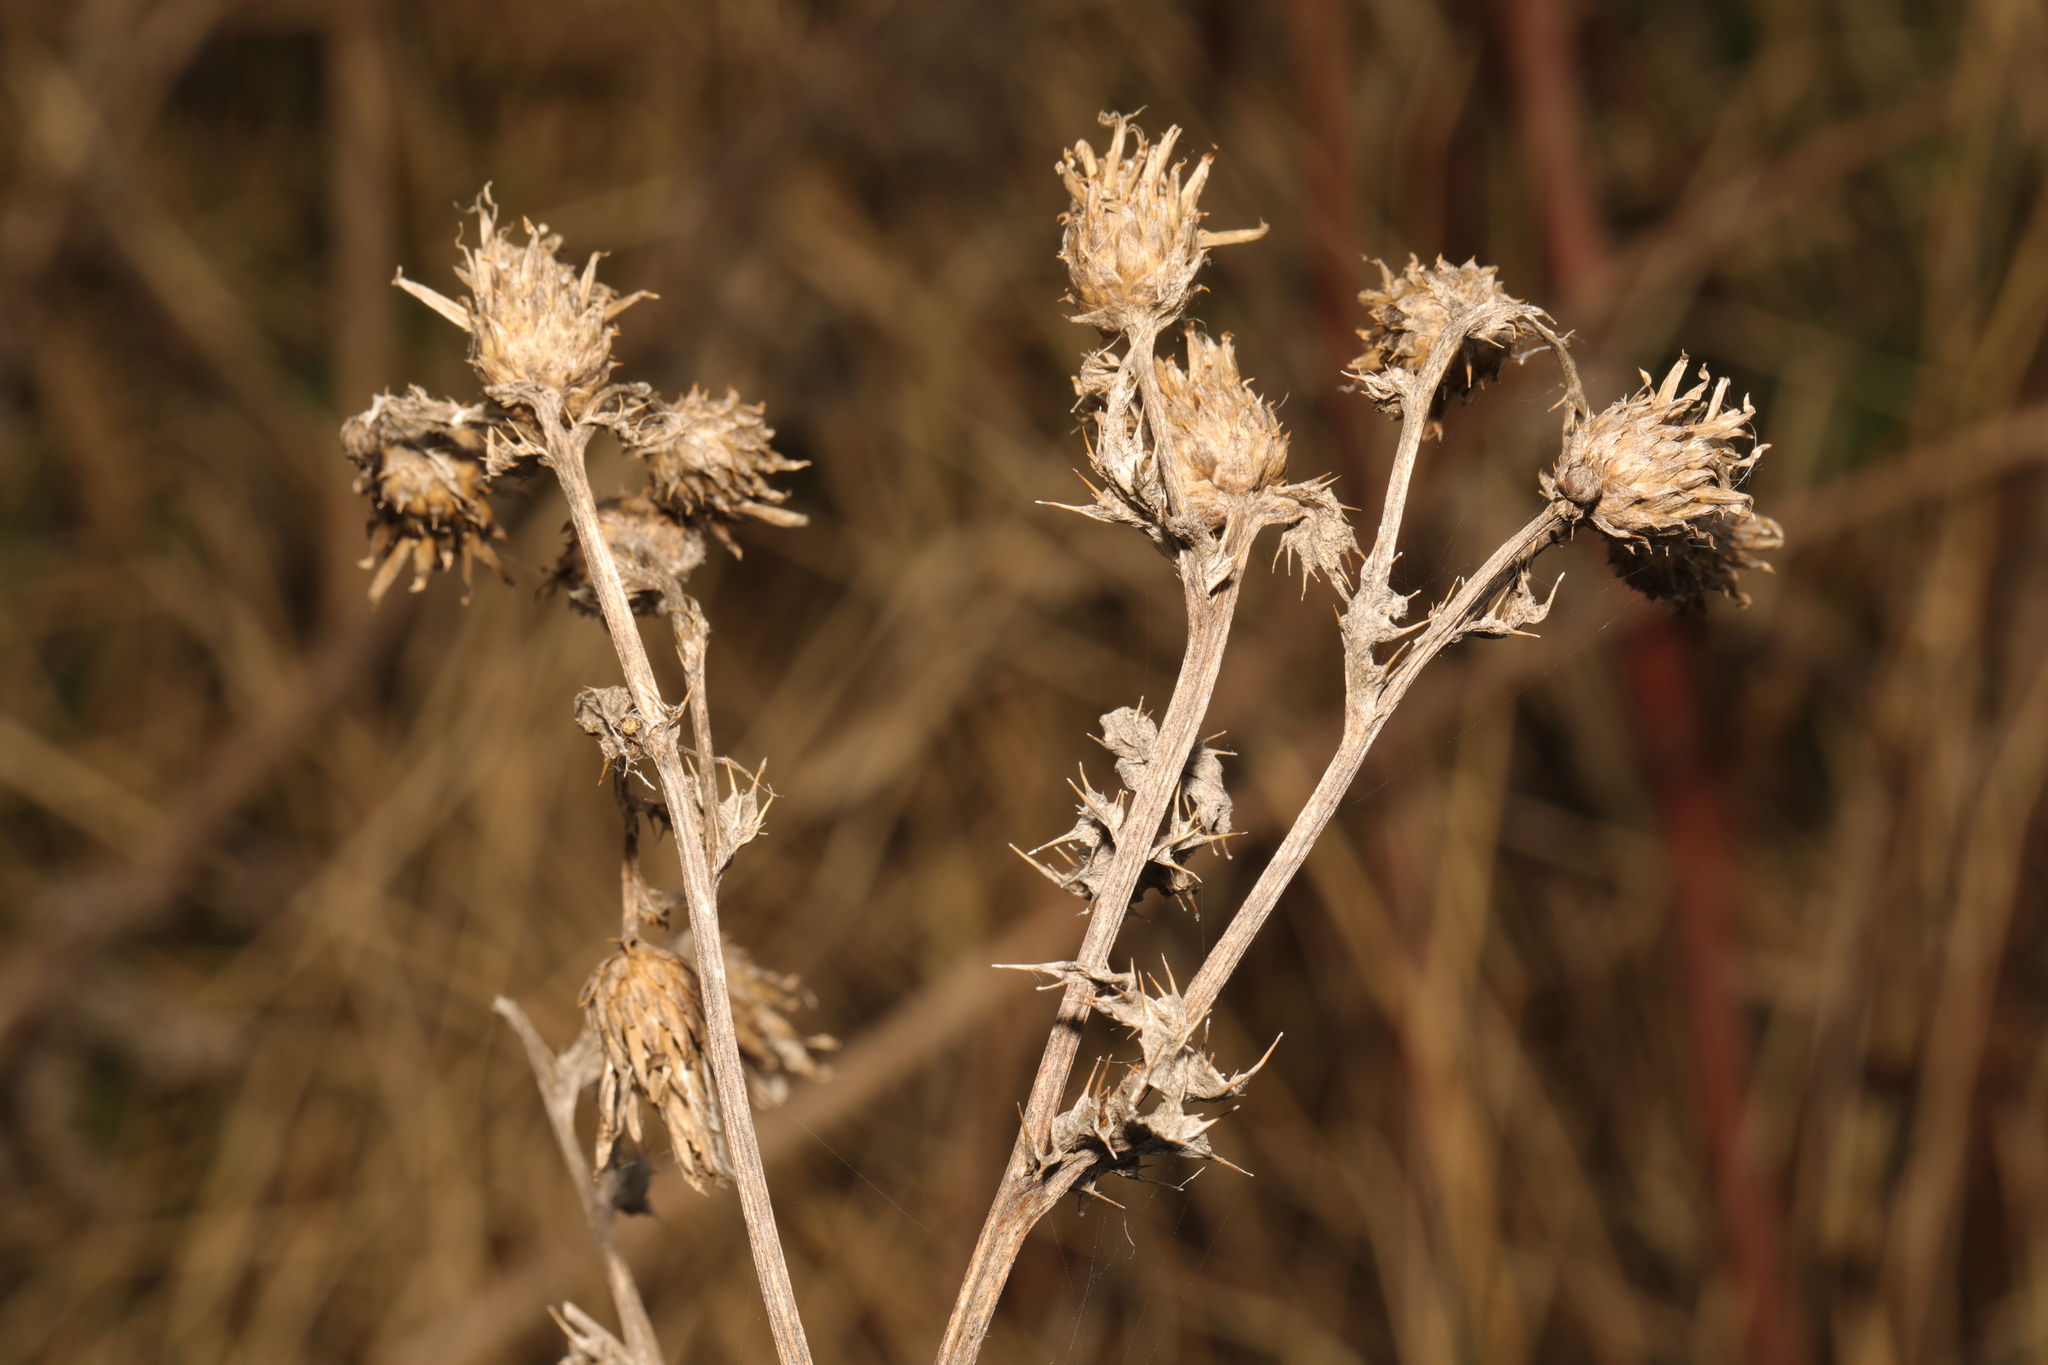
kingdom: Plantae
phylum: Tracheophyta
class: Magnoliopsida
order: Asterales
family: Asteraceae
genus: Cirsium
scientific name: Cirsium arvense
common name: Creeping thistle
